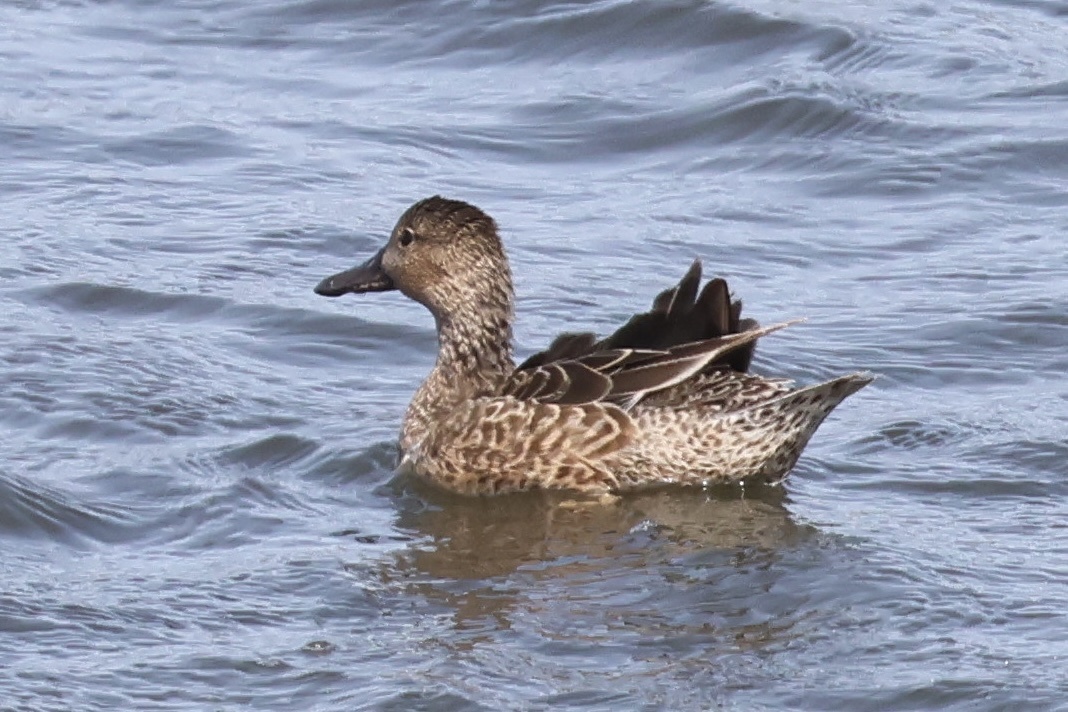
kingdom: Animalia
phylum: Chordata
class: Aves
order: Anseriformes
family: Anatidae
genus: Spatula
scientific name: Spatula cyanoptera
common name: Cinnamon teal
